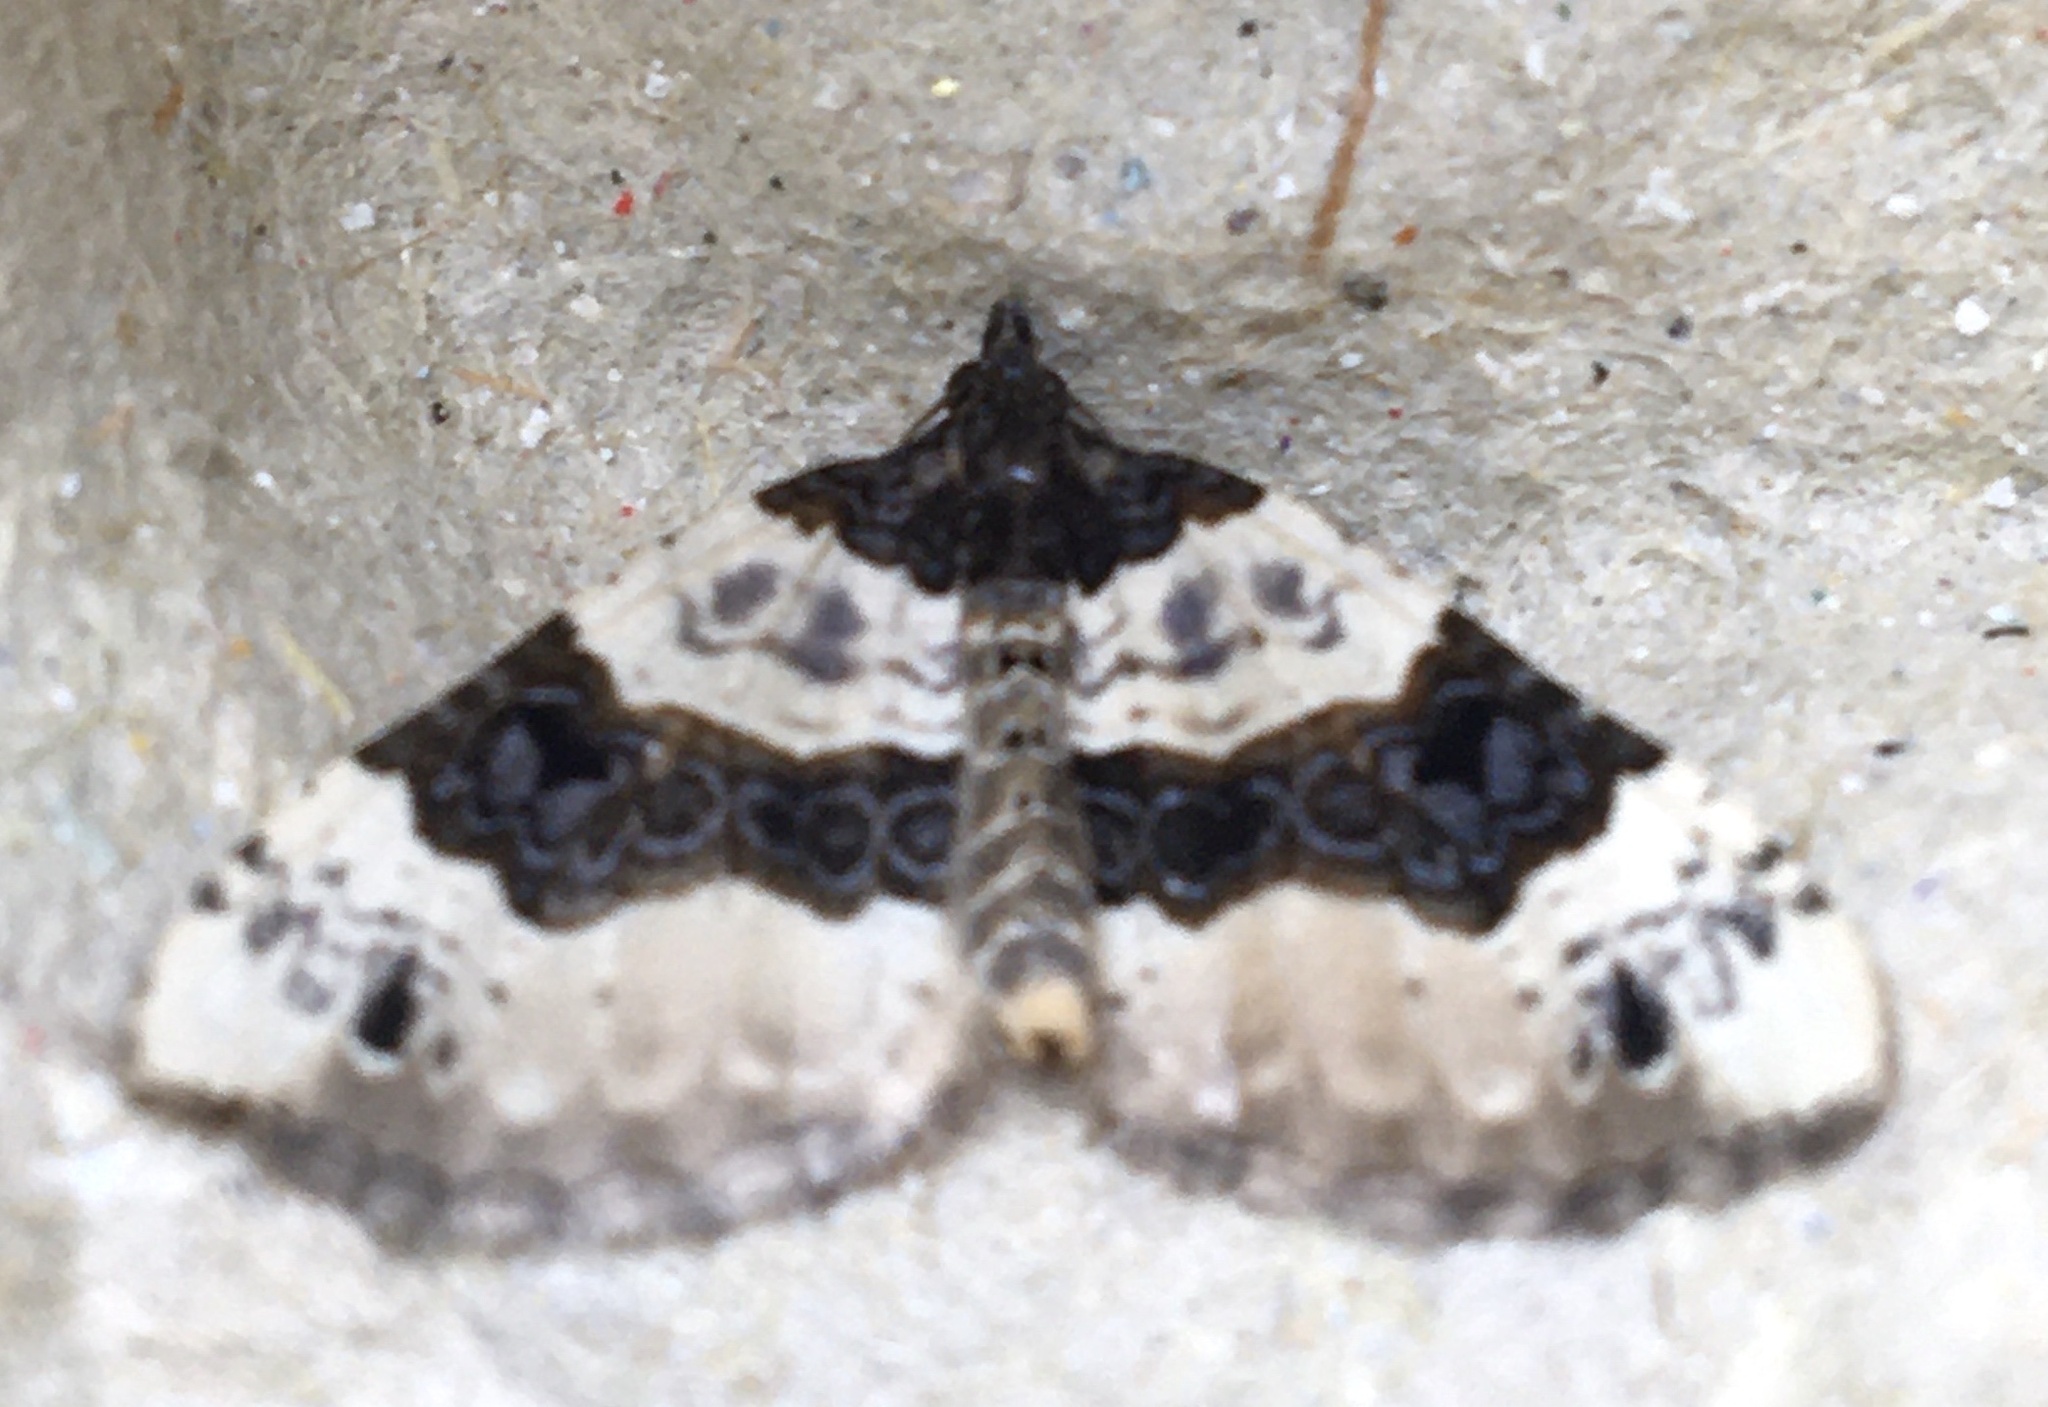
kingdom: Animalia
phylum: Arthropoda
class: Insecta
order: Lepidoptera
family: Geometridae
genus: Cosmorhoe
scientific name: Cosmorhoe ocellata
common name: Purple bar
